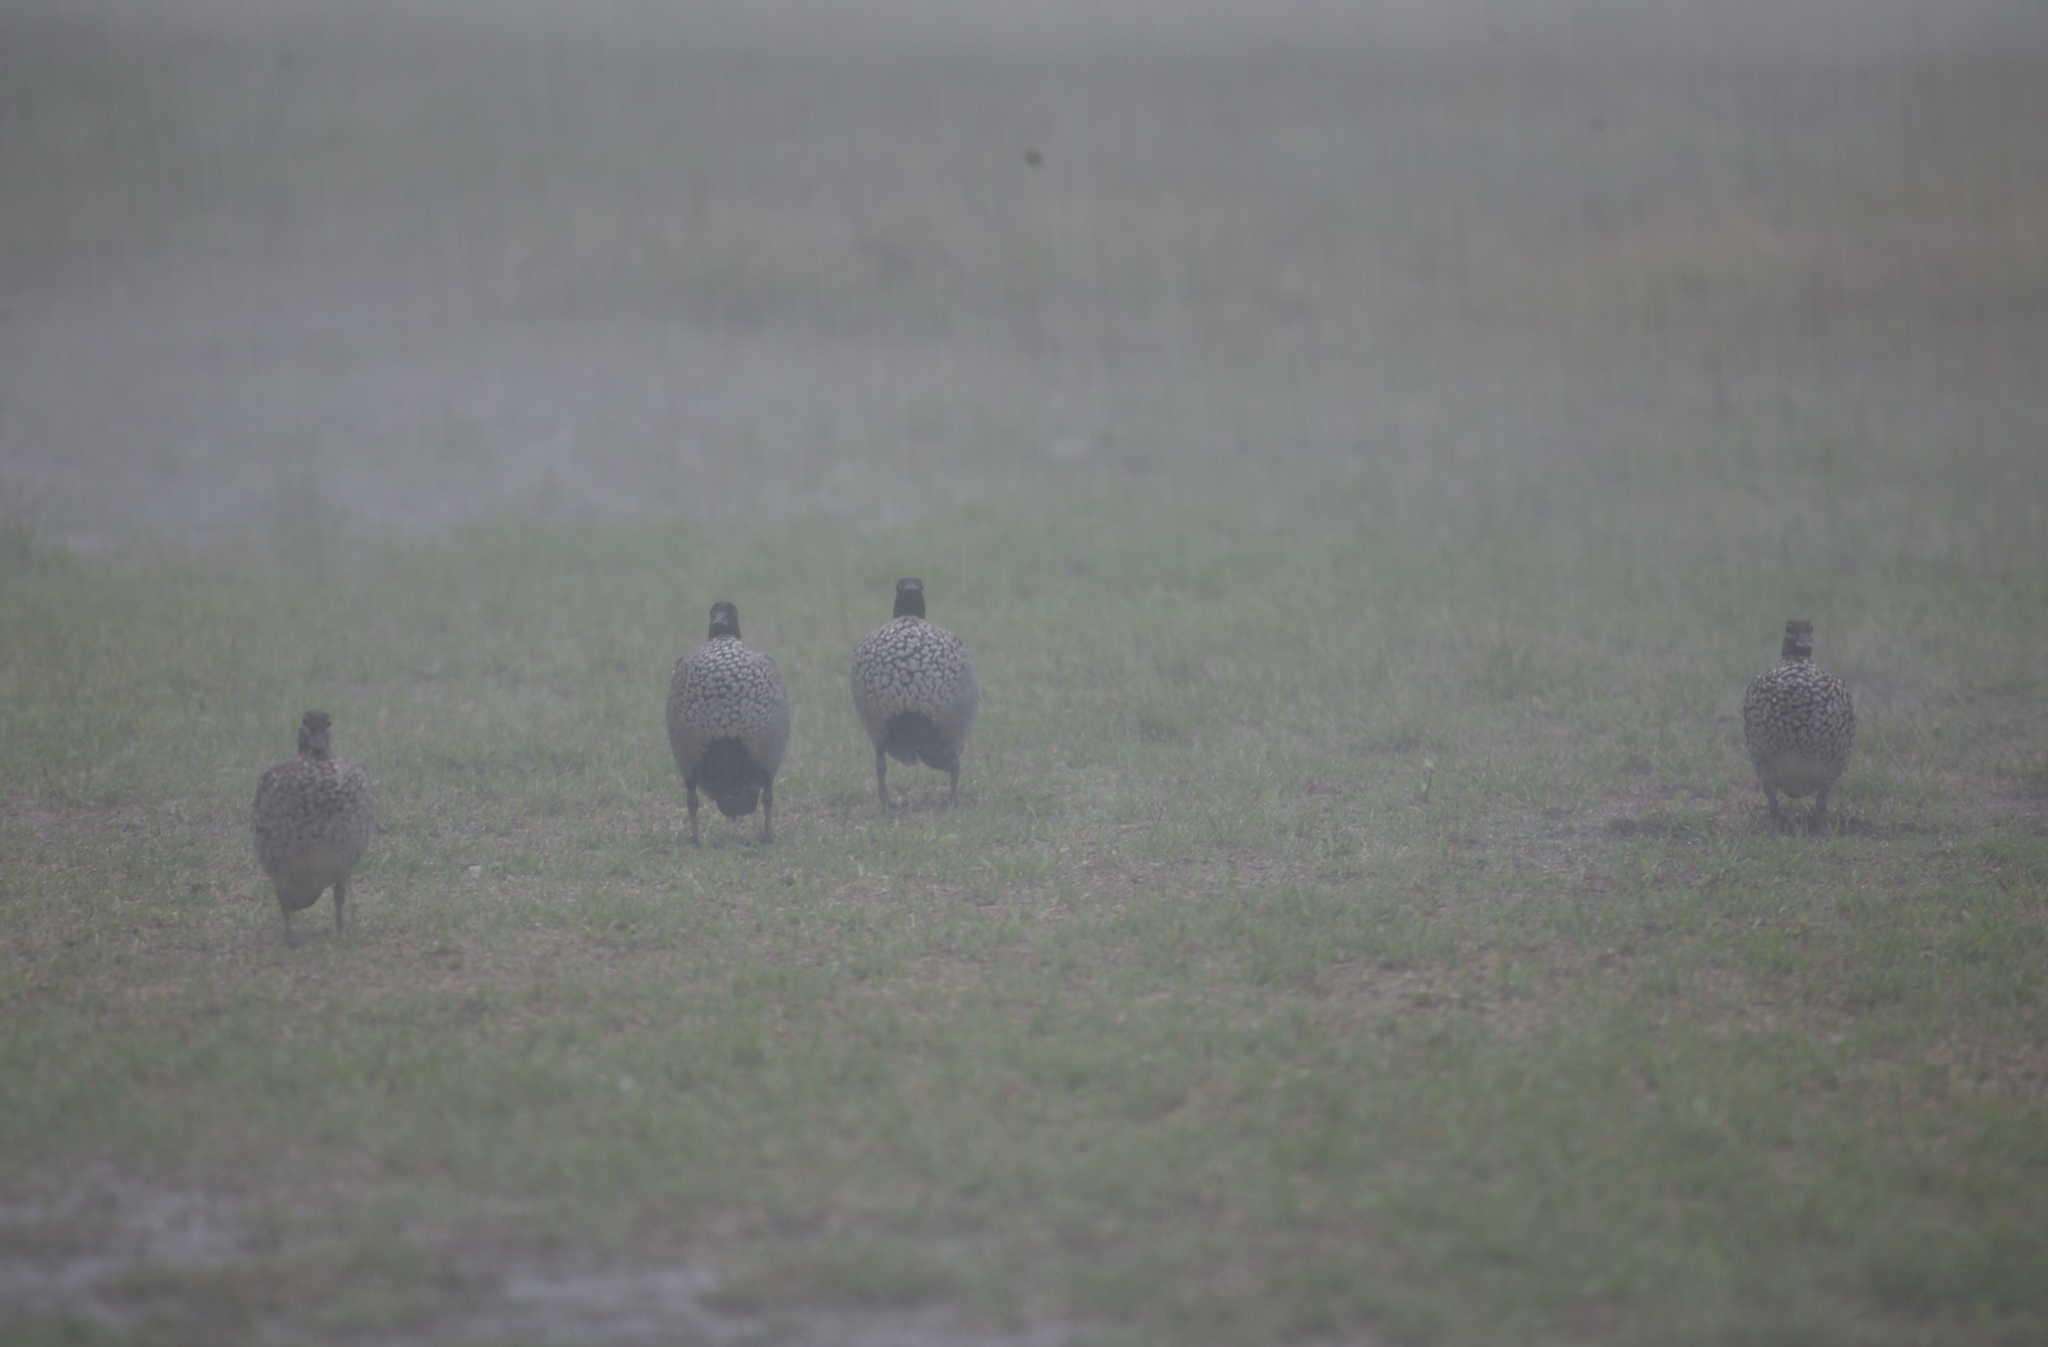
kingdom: Animalia
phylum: Chordata
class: Aves
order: Anseriformes
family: Anatidae
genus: Chenonetta
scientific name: Chenonetta jubata
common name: Maned duck
